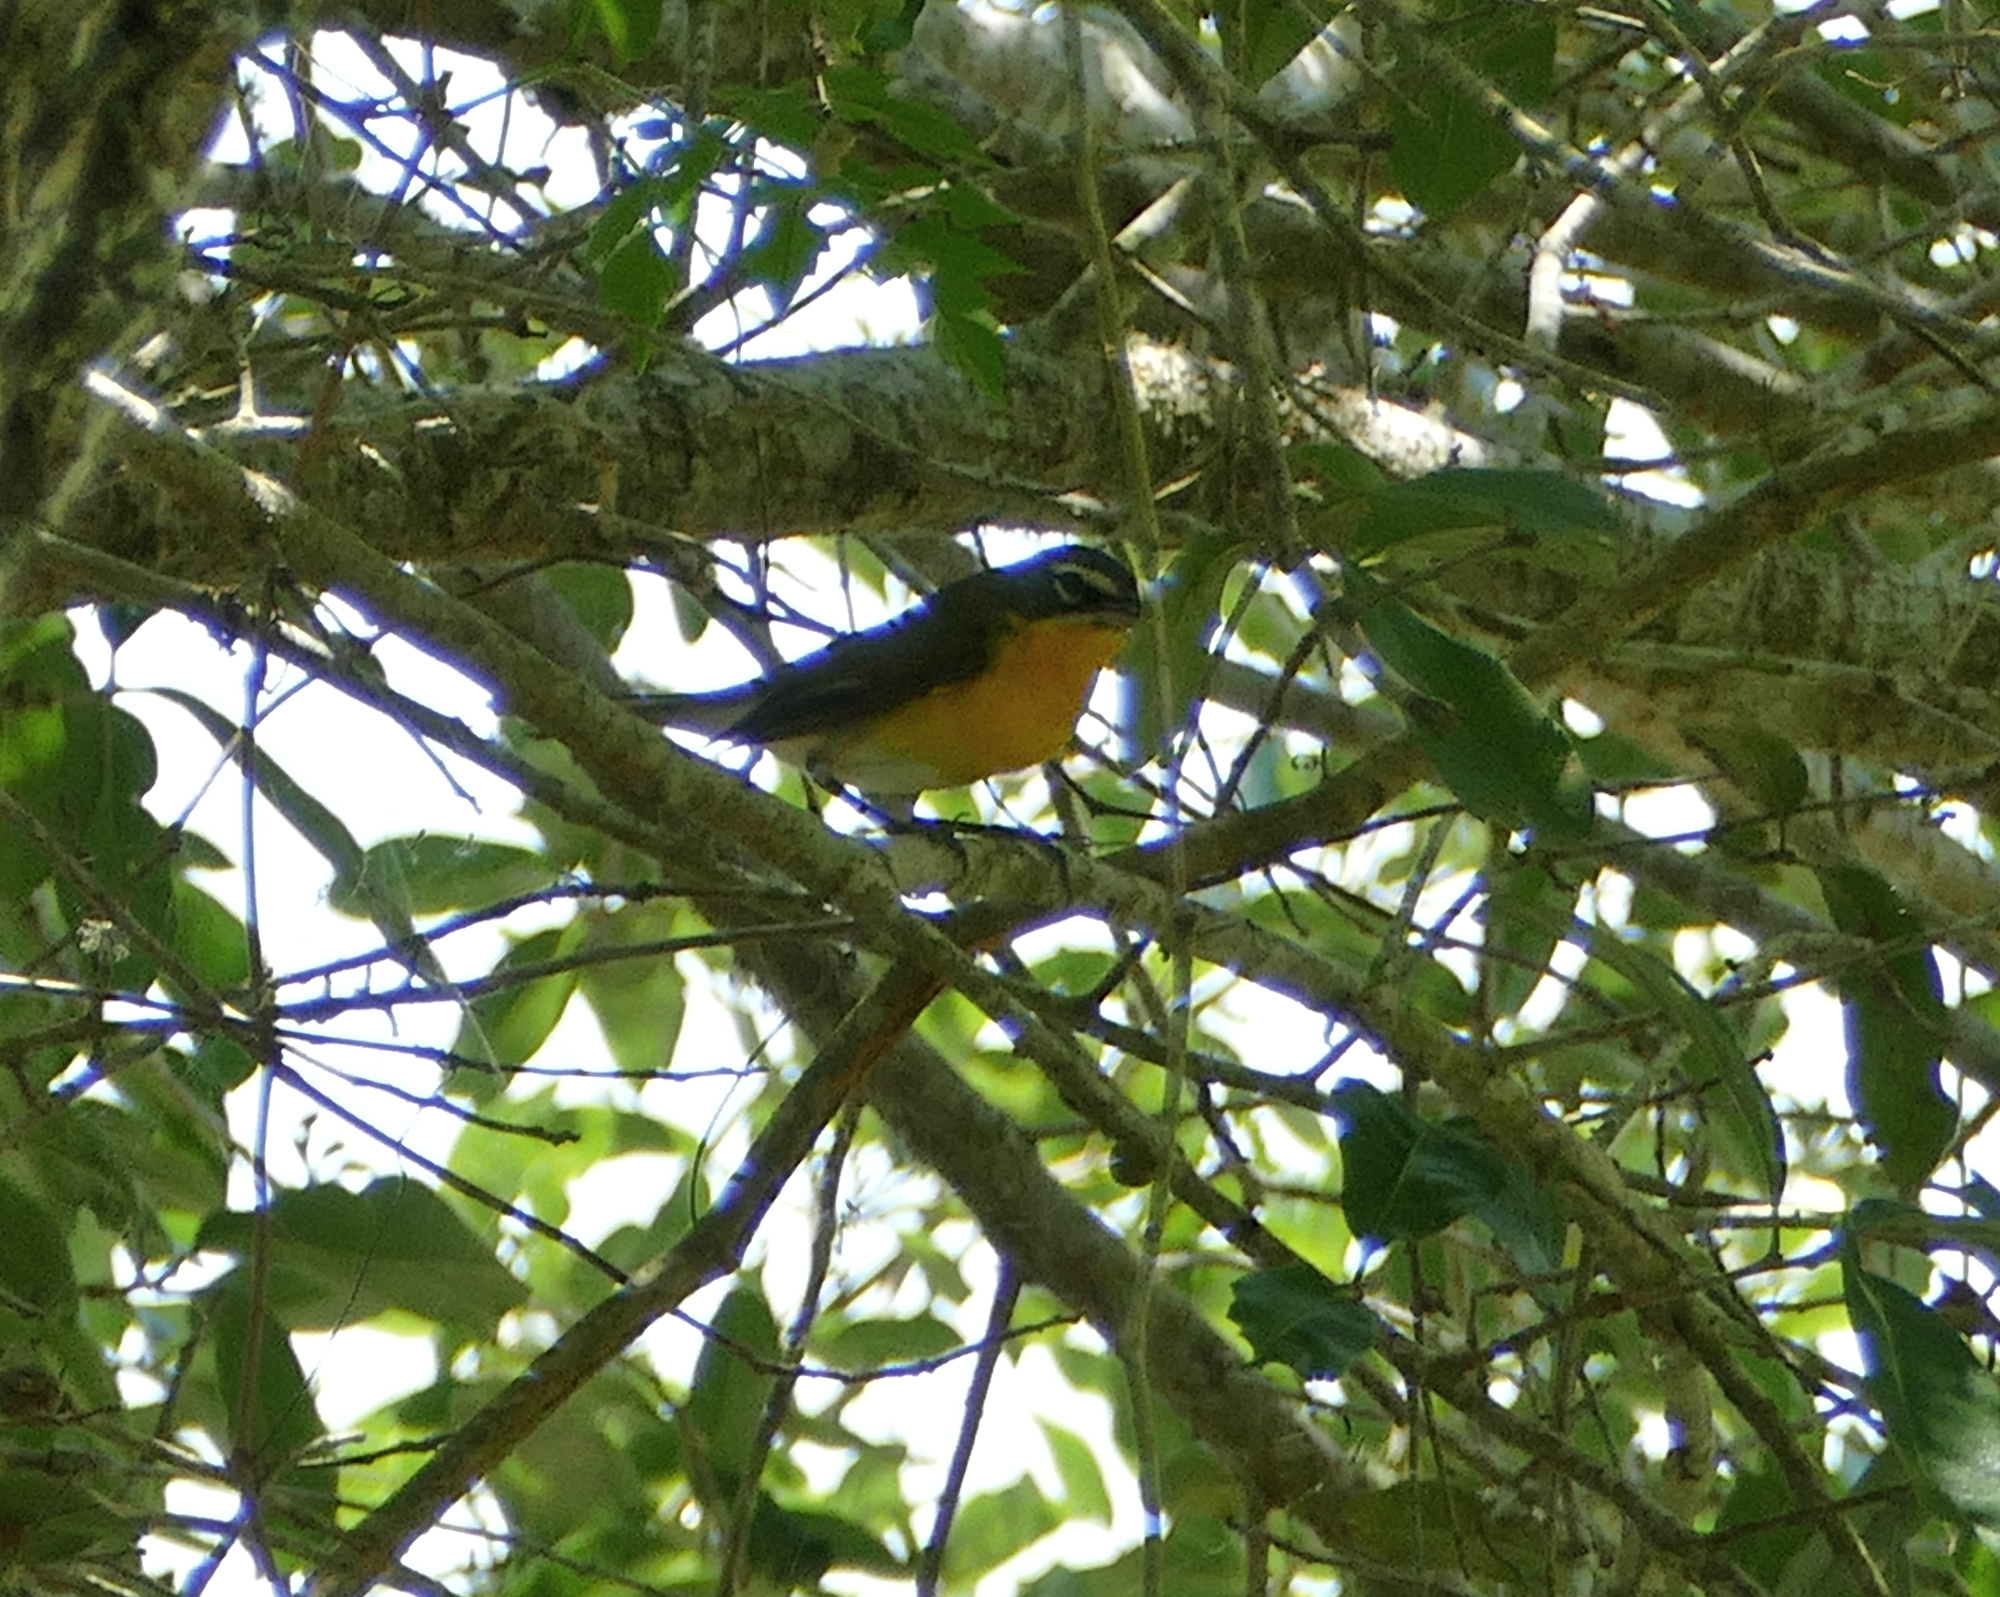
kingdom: Animalia
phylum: Chordata
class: Aves
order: Passeriformes
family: Parulidae
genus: Icteria
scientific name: Icteria virens
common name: Yellow-breasted chat
